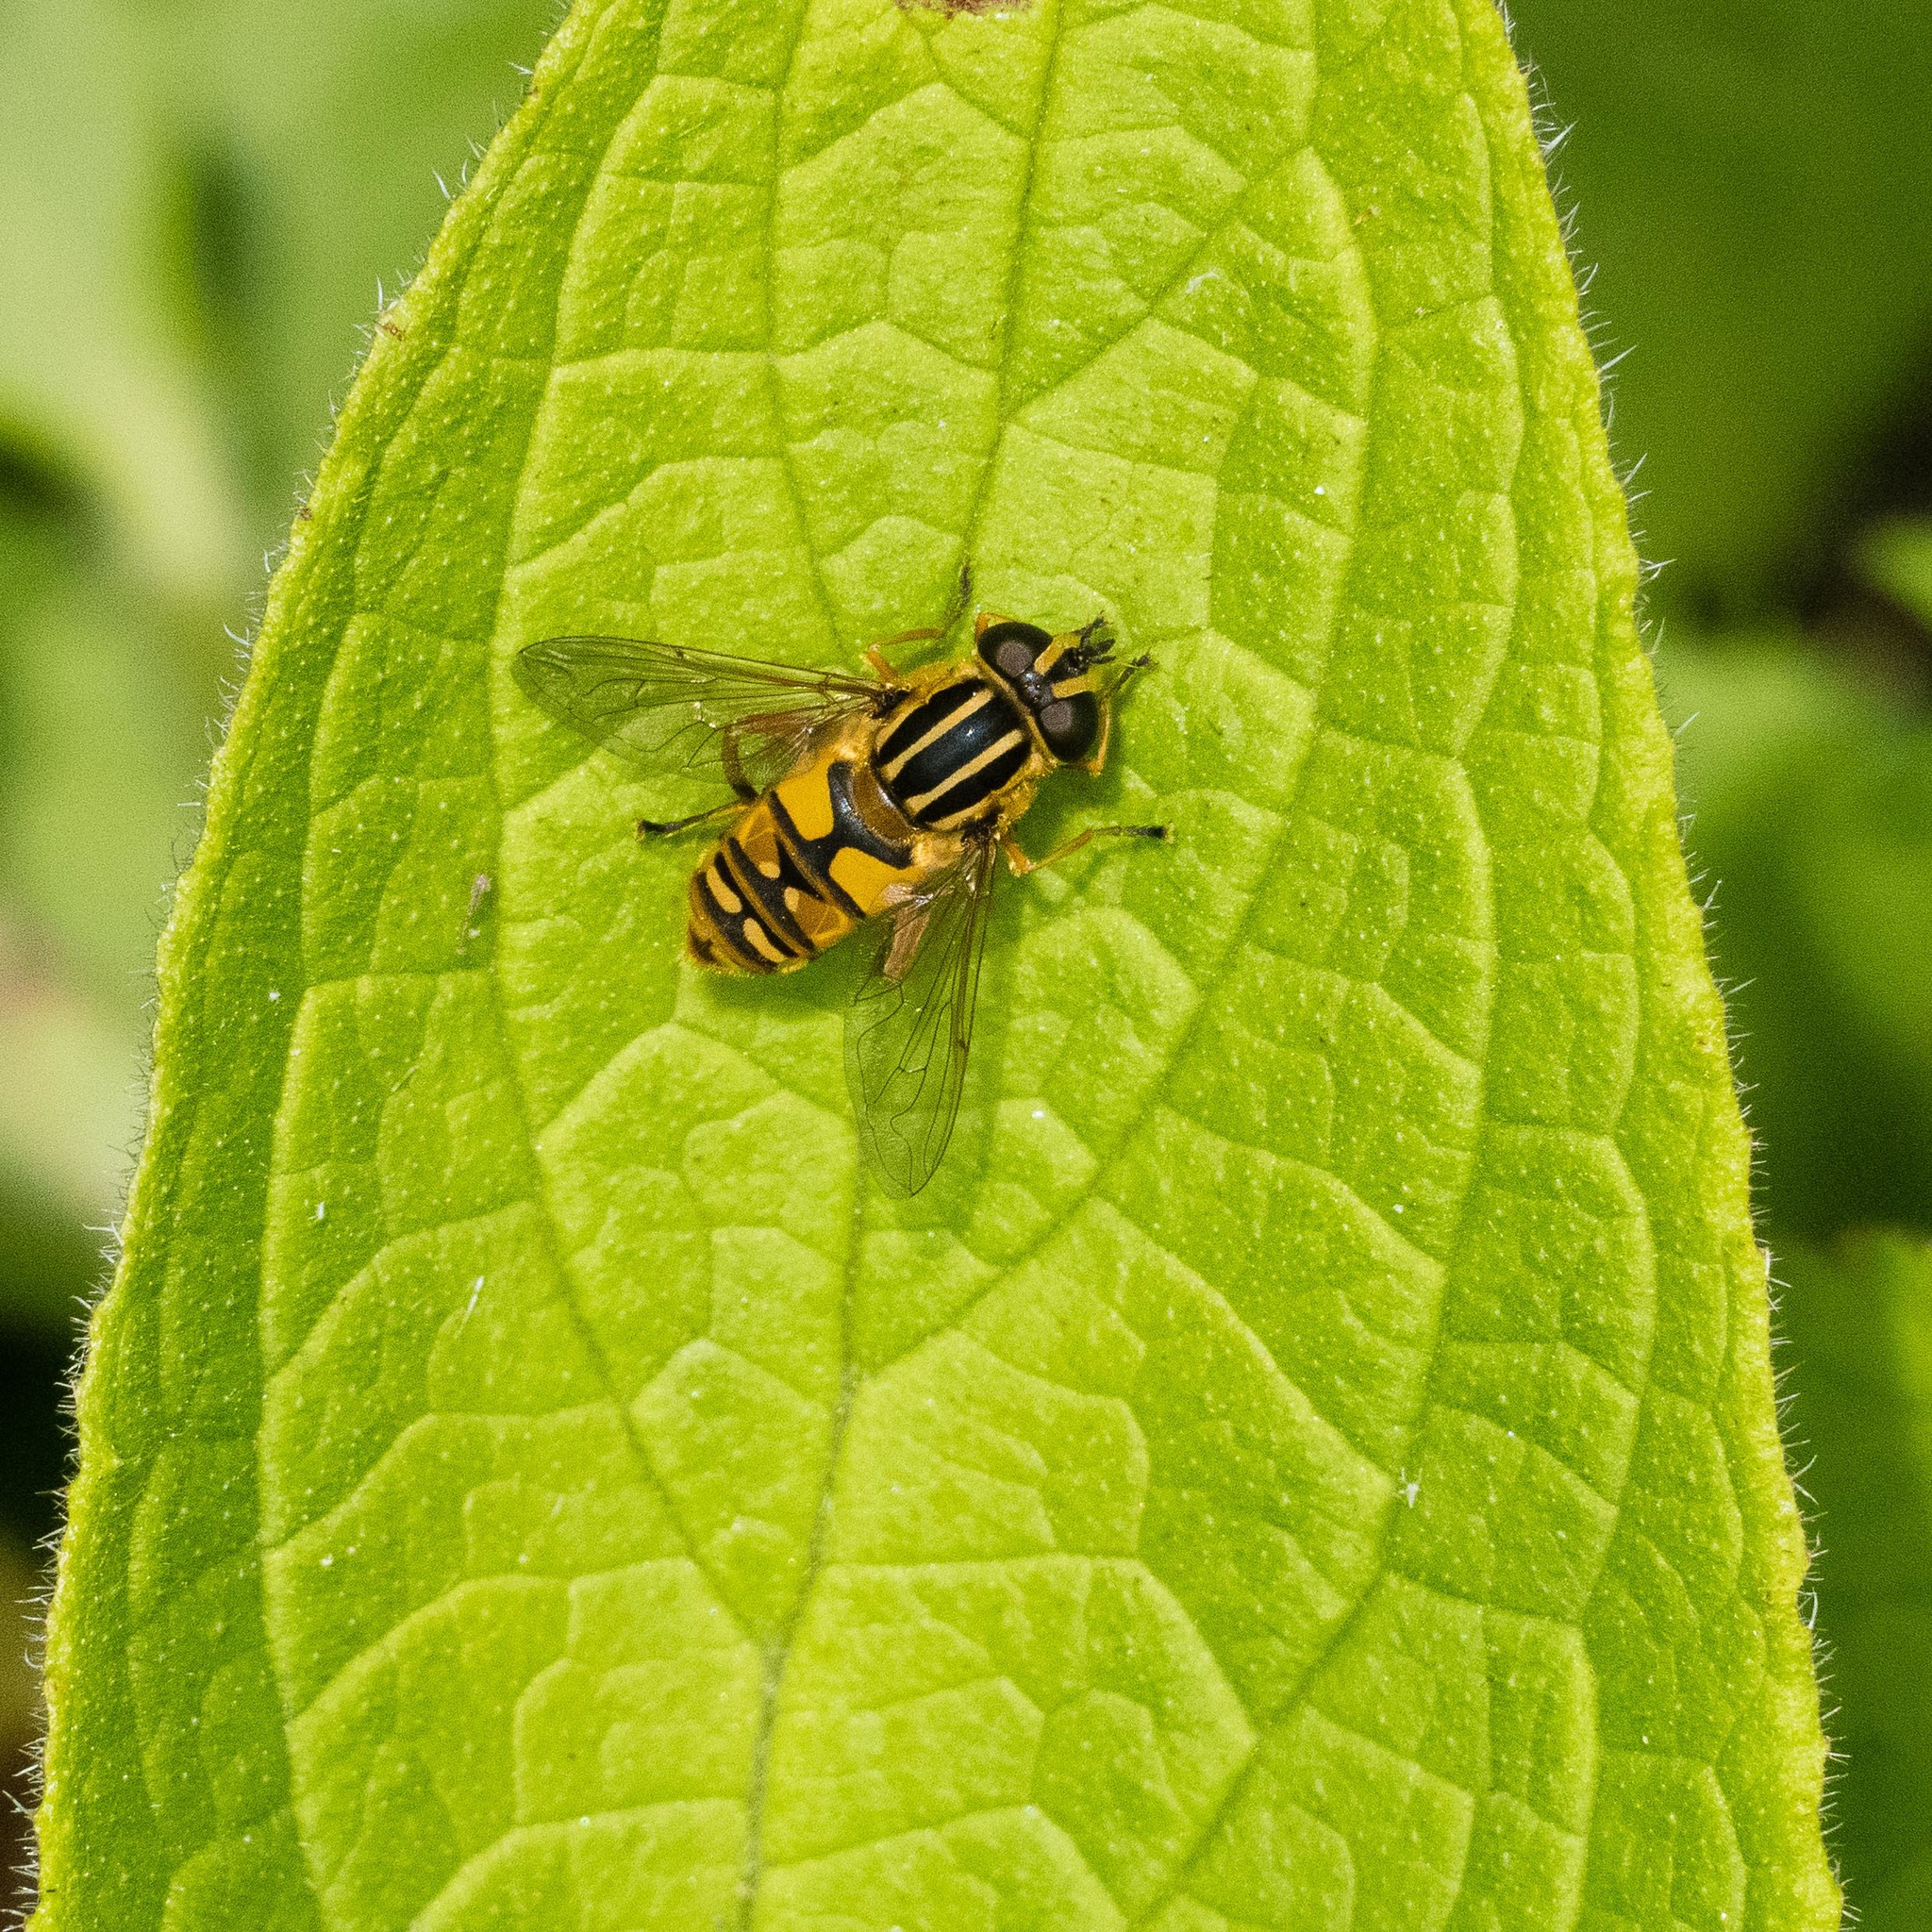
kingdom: Animalia
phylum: Arthropoda
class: Insecta
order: Diptera
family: Syrphidae
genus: Helophilus
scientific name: Helophilus pendulus
